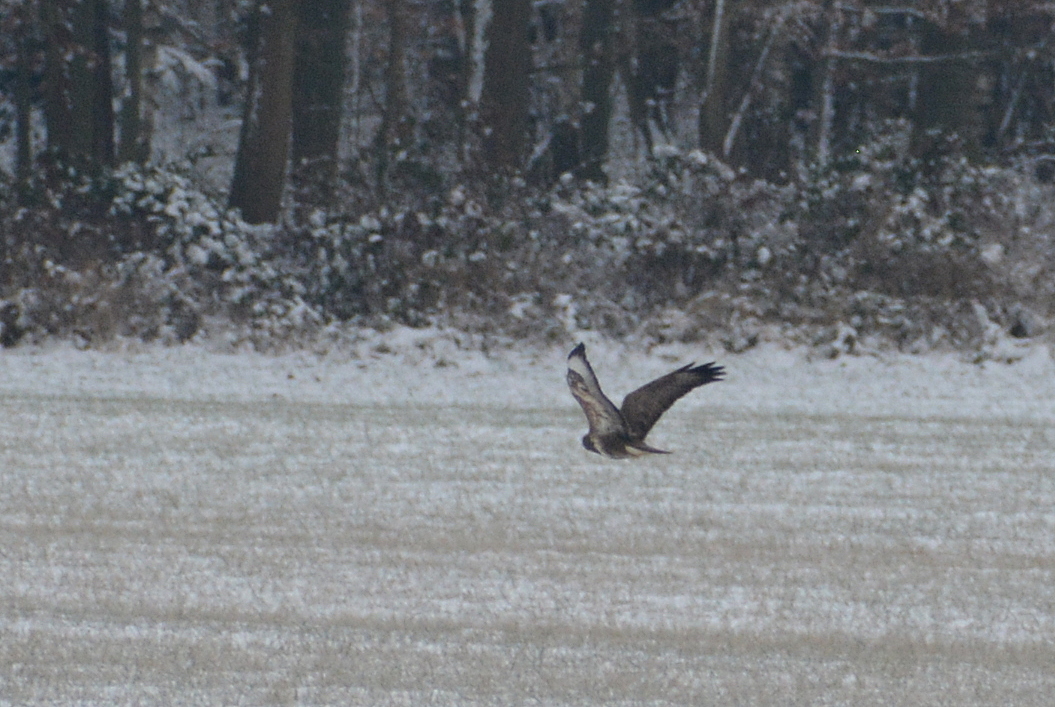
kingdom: Animalia
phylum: Chordata
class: Aves
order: Accipitriformes
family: Accipitridae
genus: Buteo
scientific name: Buteo buteo
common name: Common buzzard
